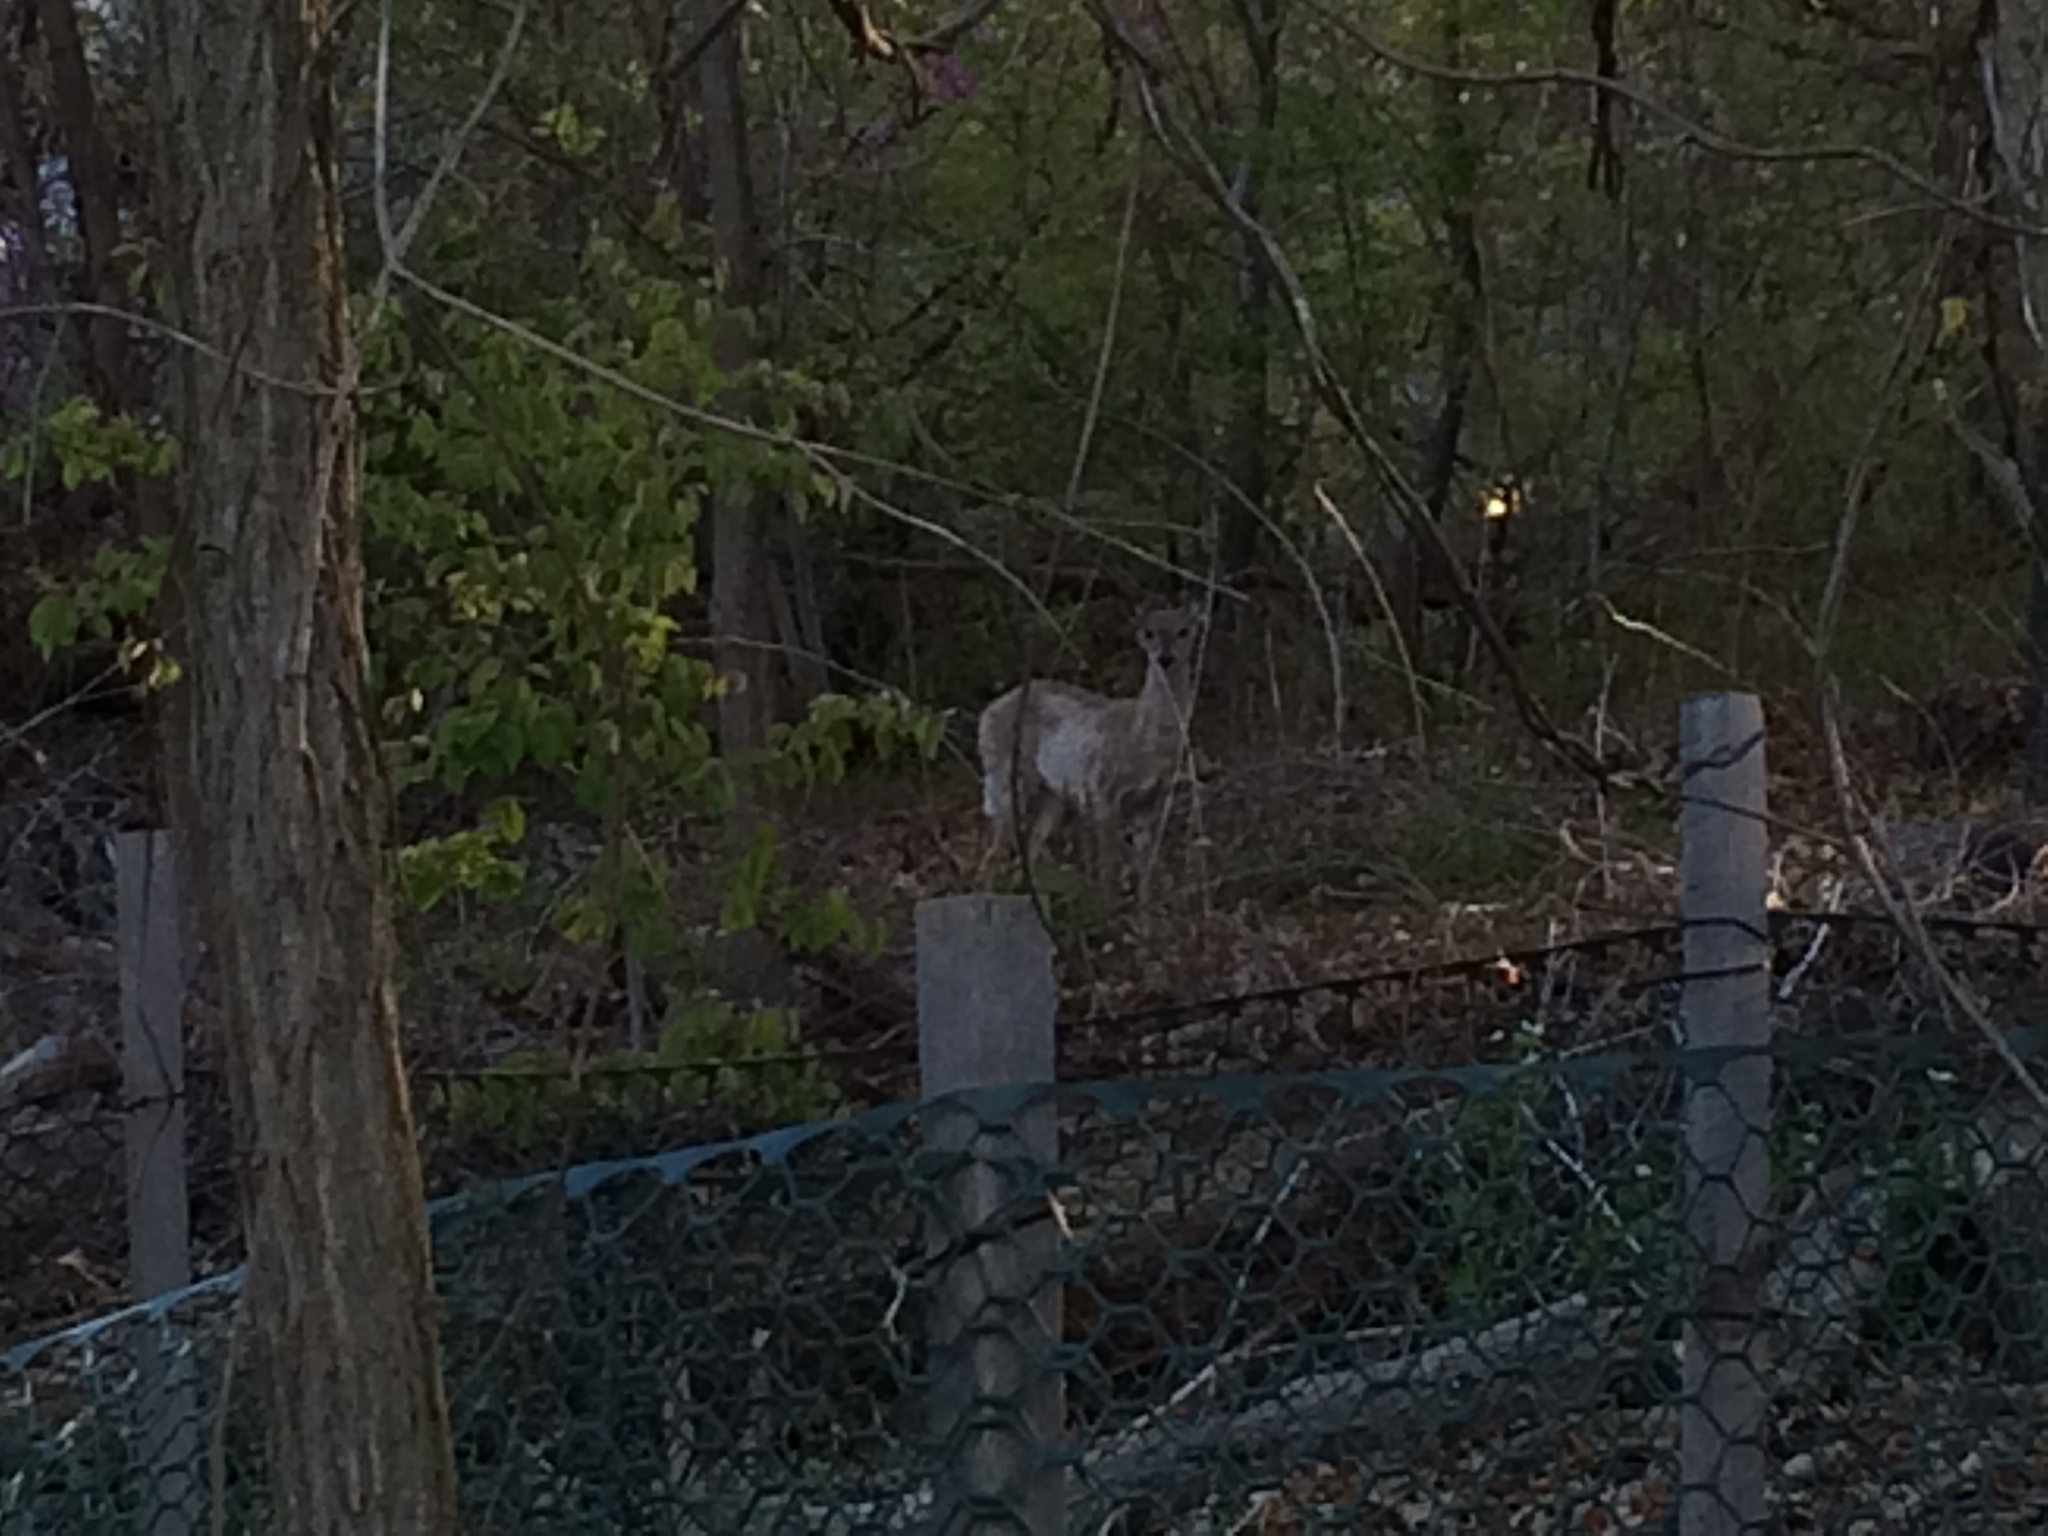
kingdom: Animalia
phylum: Chordata
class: Mammalia
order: Artiodactyla
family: Cervidae
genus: Odocoileus
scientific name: Odocoileus virginianus
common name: White-tailed deer
